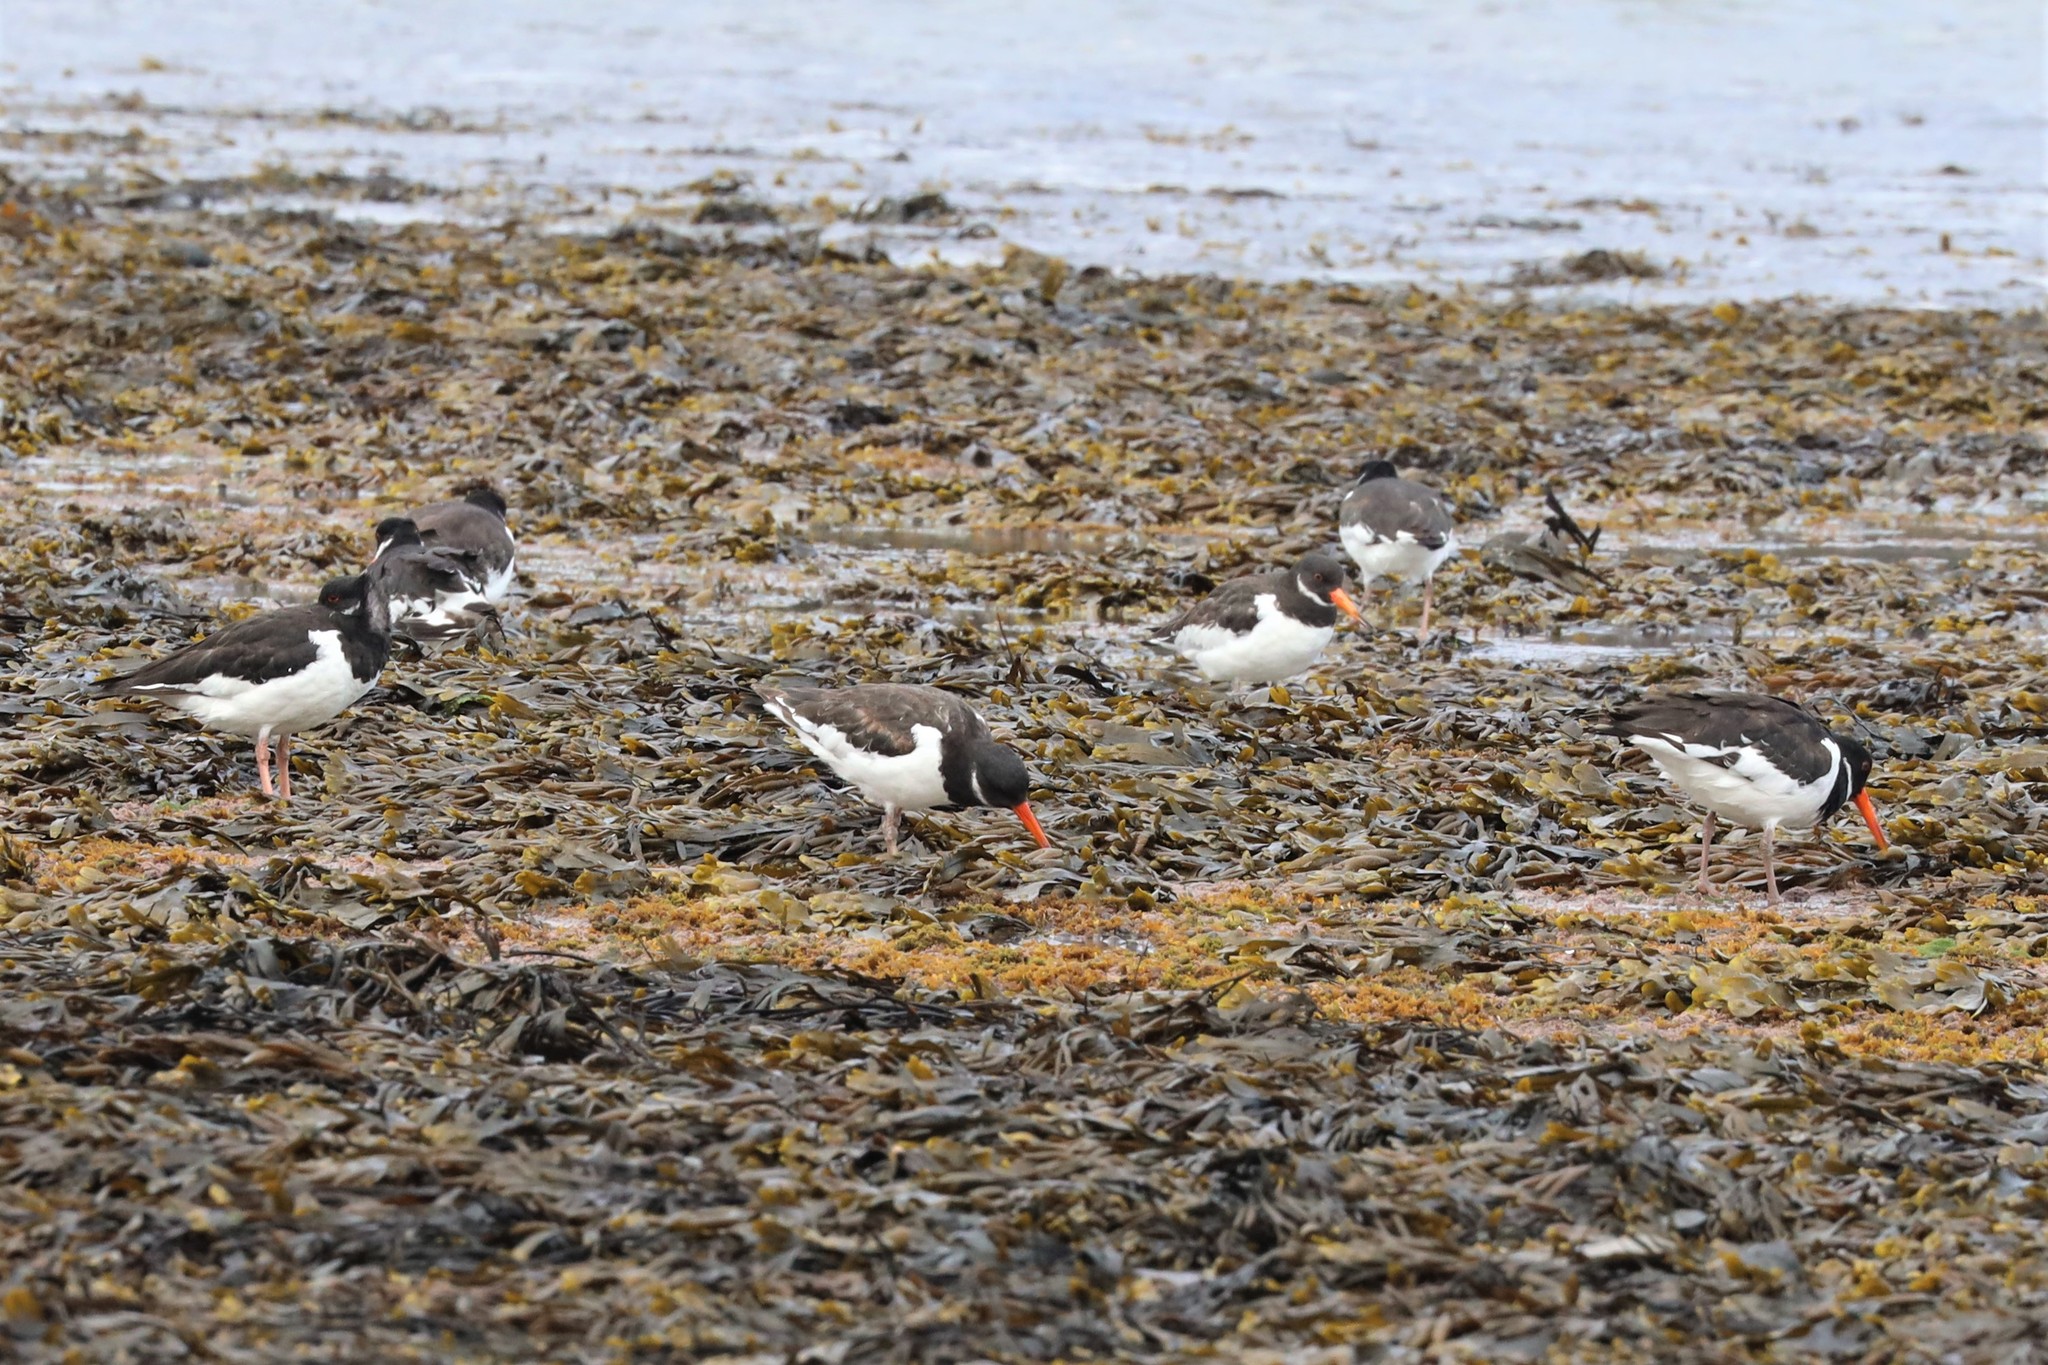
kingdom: Animalia
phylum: Chordata
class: Aves
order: Charadriiformes
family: Haematopodidae
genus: Haematopus
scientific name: Haematopus ostralegus
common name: Eurasian oystercatcher
